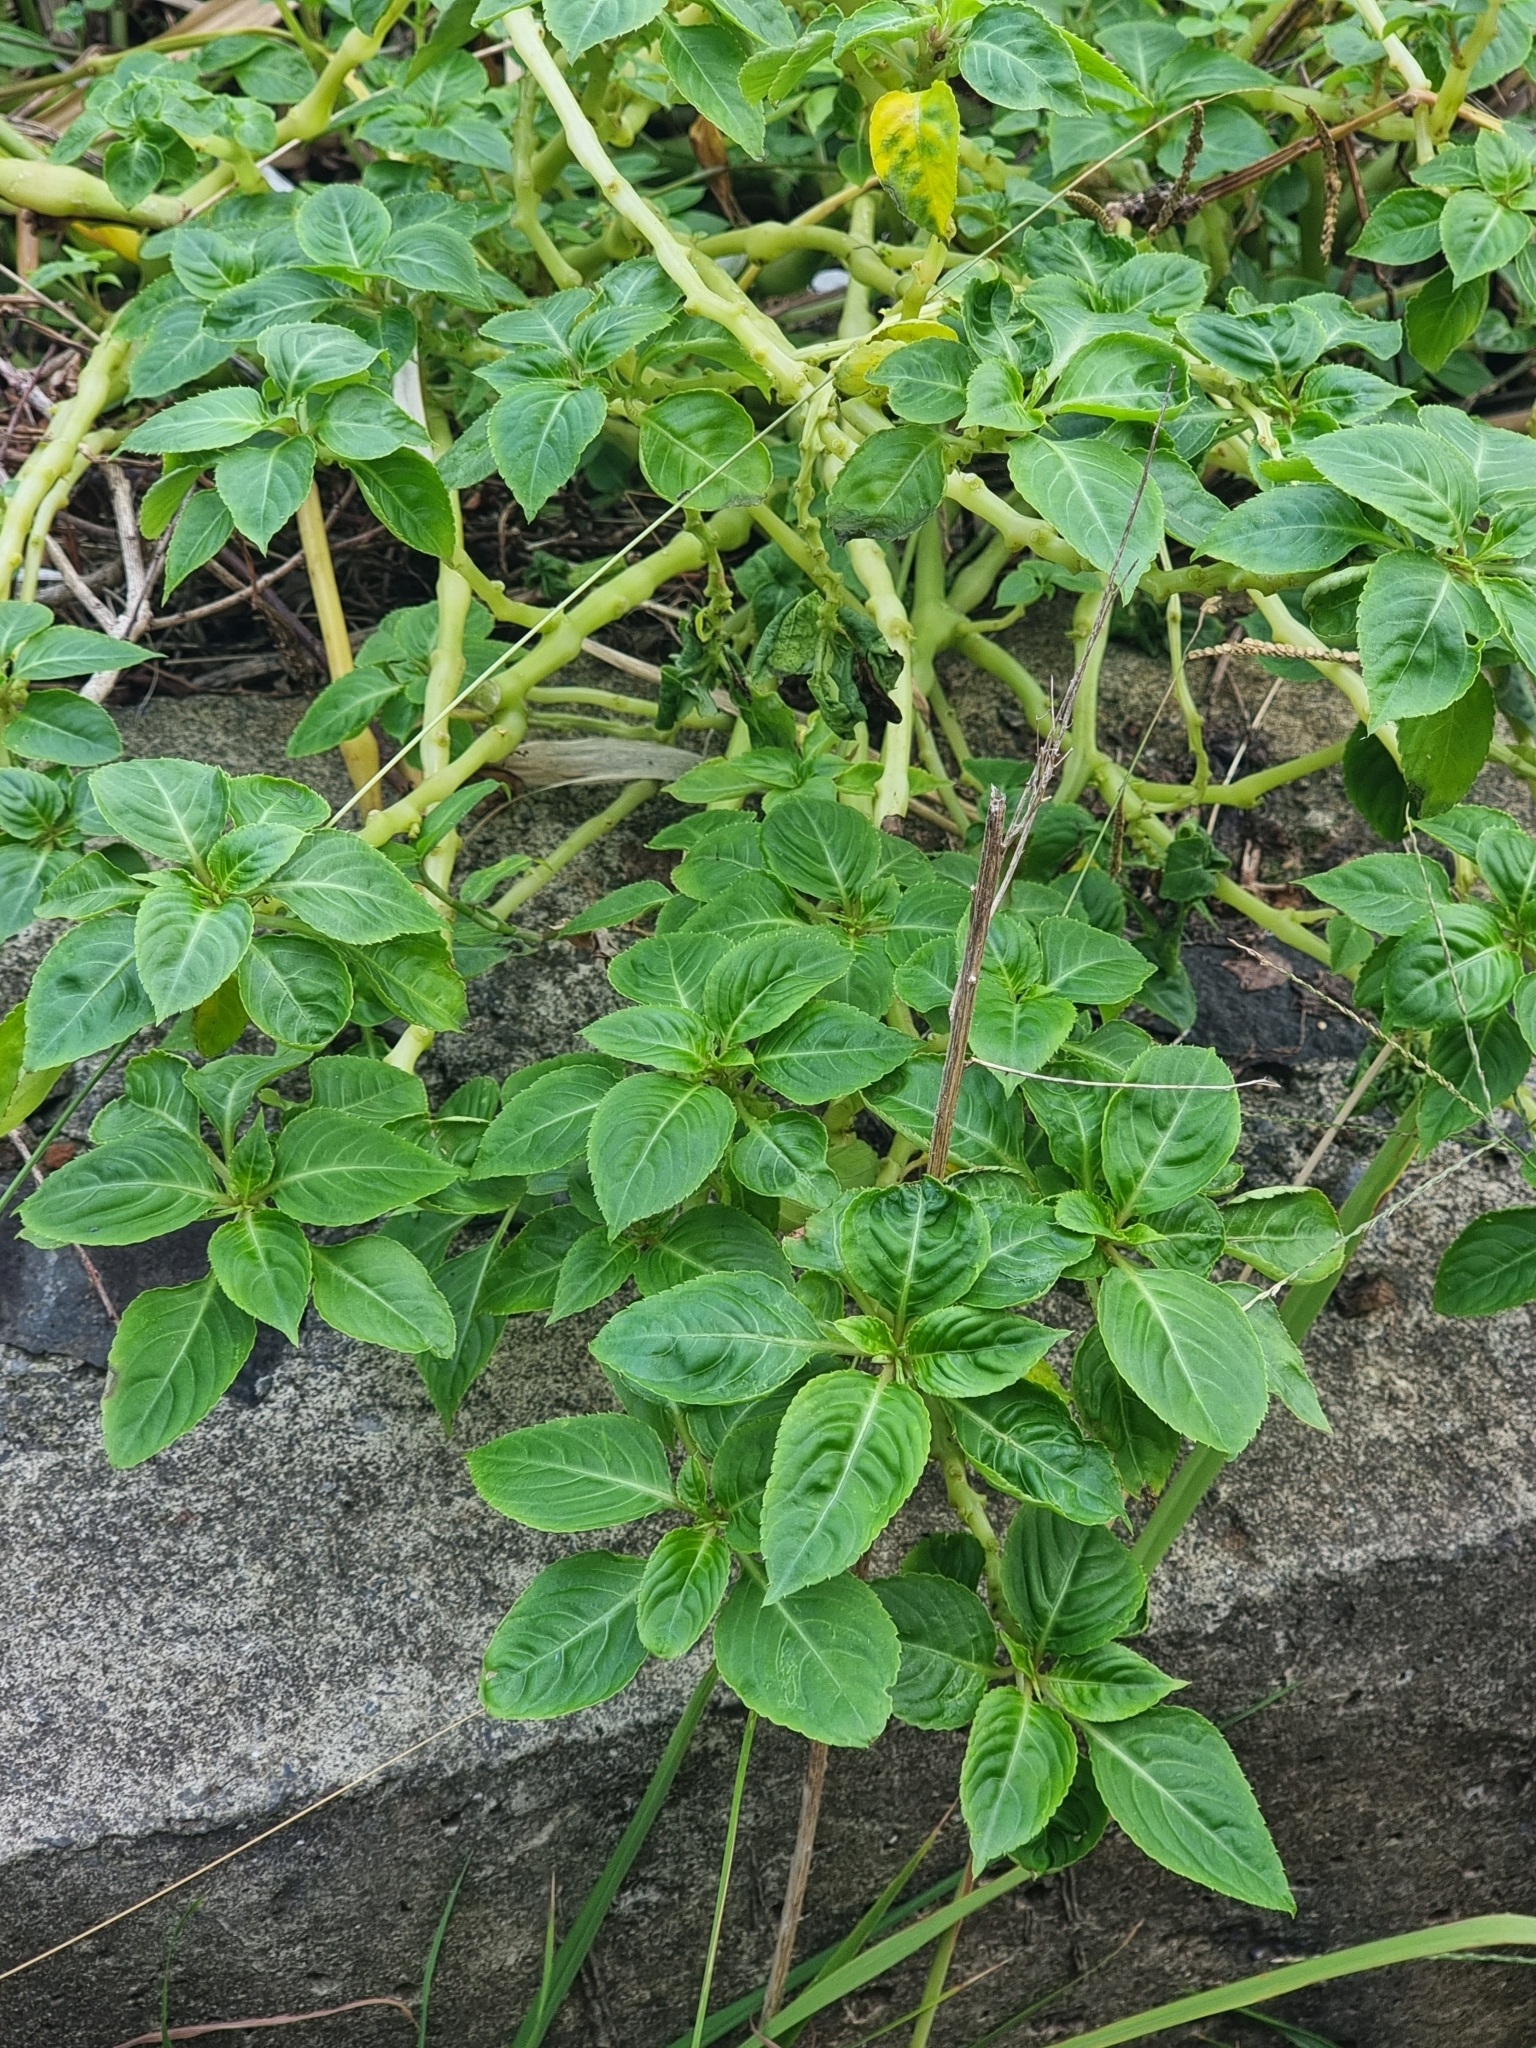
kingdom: Plantae
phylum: Tracheophyta
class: Magnoliopsida
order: Ericales
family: Balsaminaceae
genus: Impatiens
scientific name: Impatiens walleriana
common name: Buzzy lizzy
